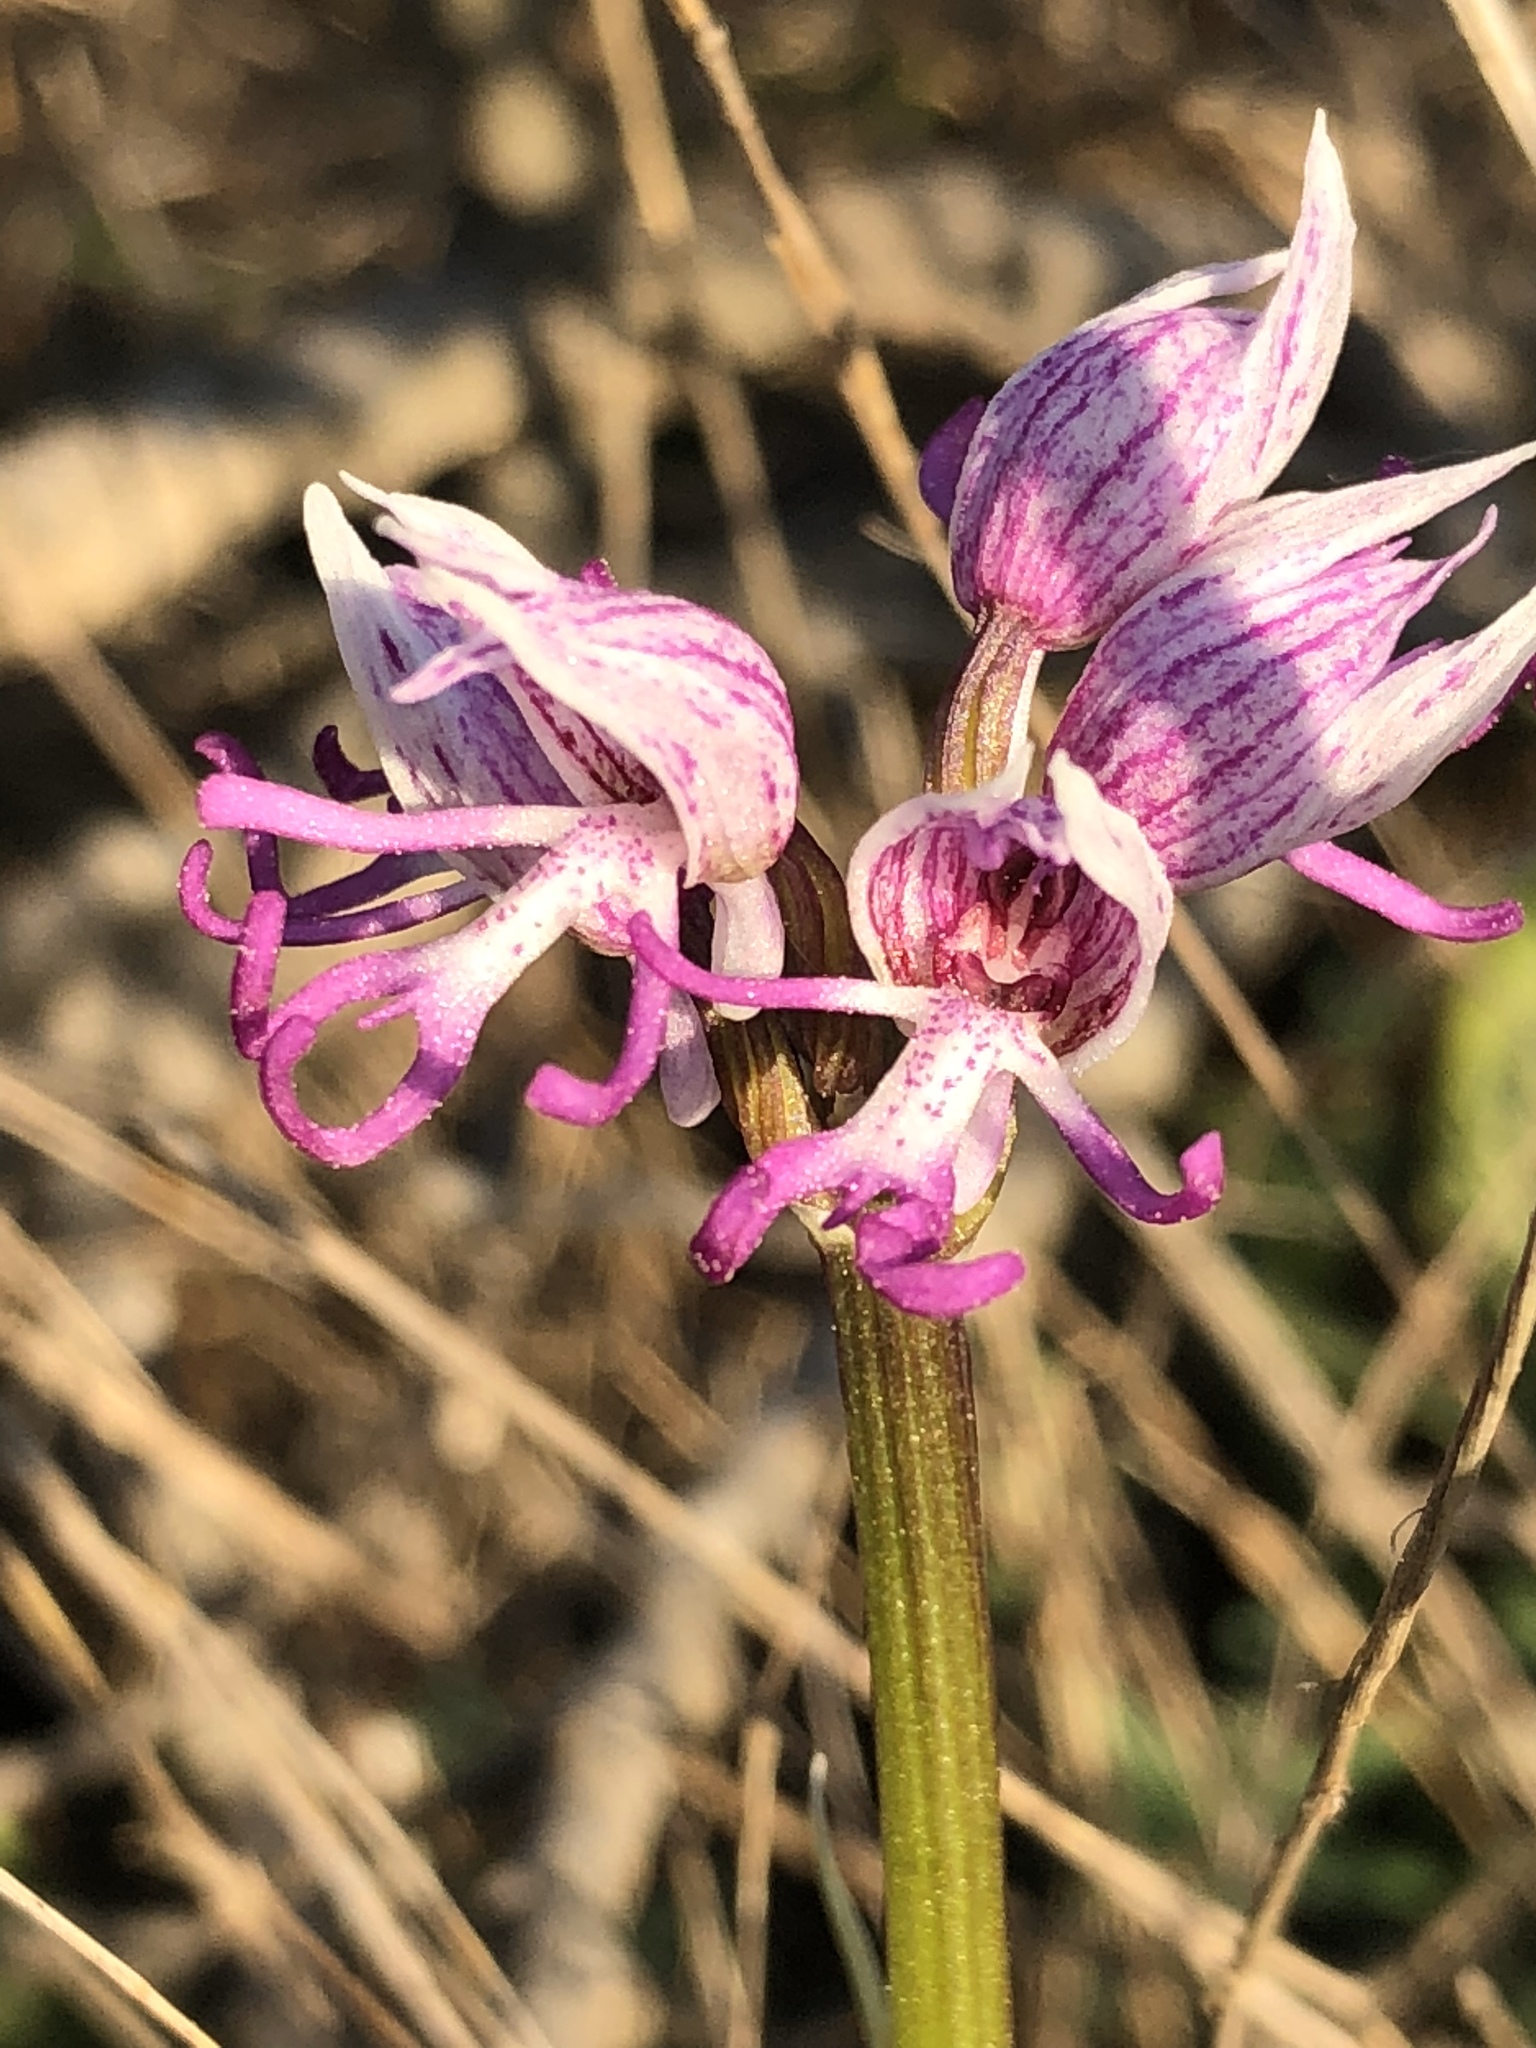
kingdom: Plantae
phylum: Tracheophyta
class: Liliopsida
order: Asparagales
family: Orchidaceae
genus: Orchis
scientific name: Orchis simia
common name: Monkey orchid
